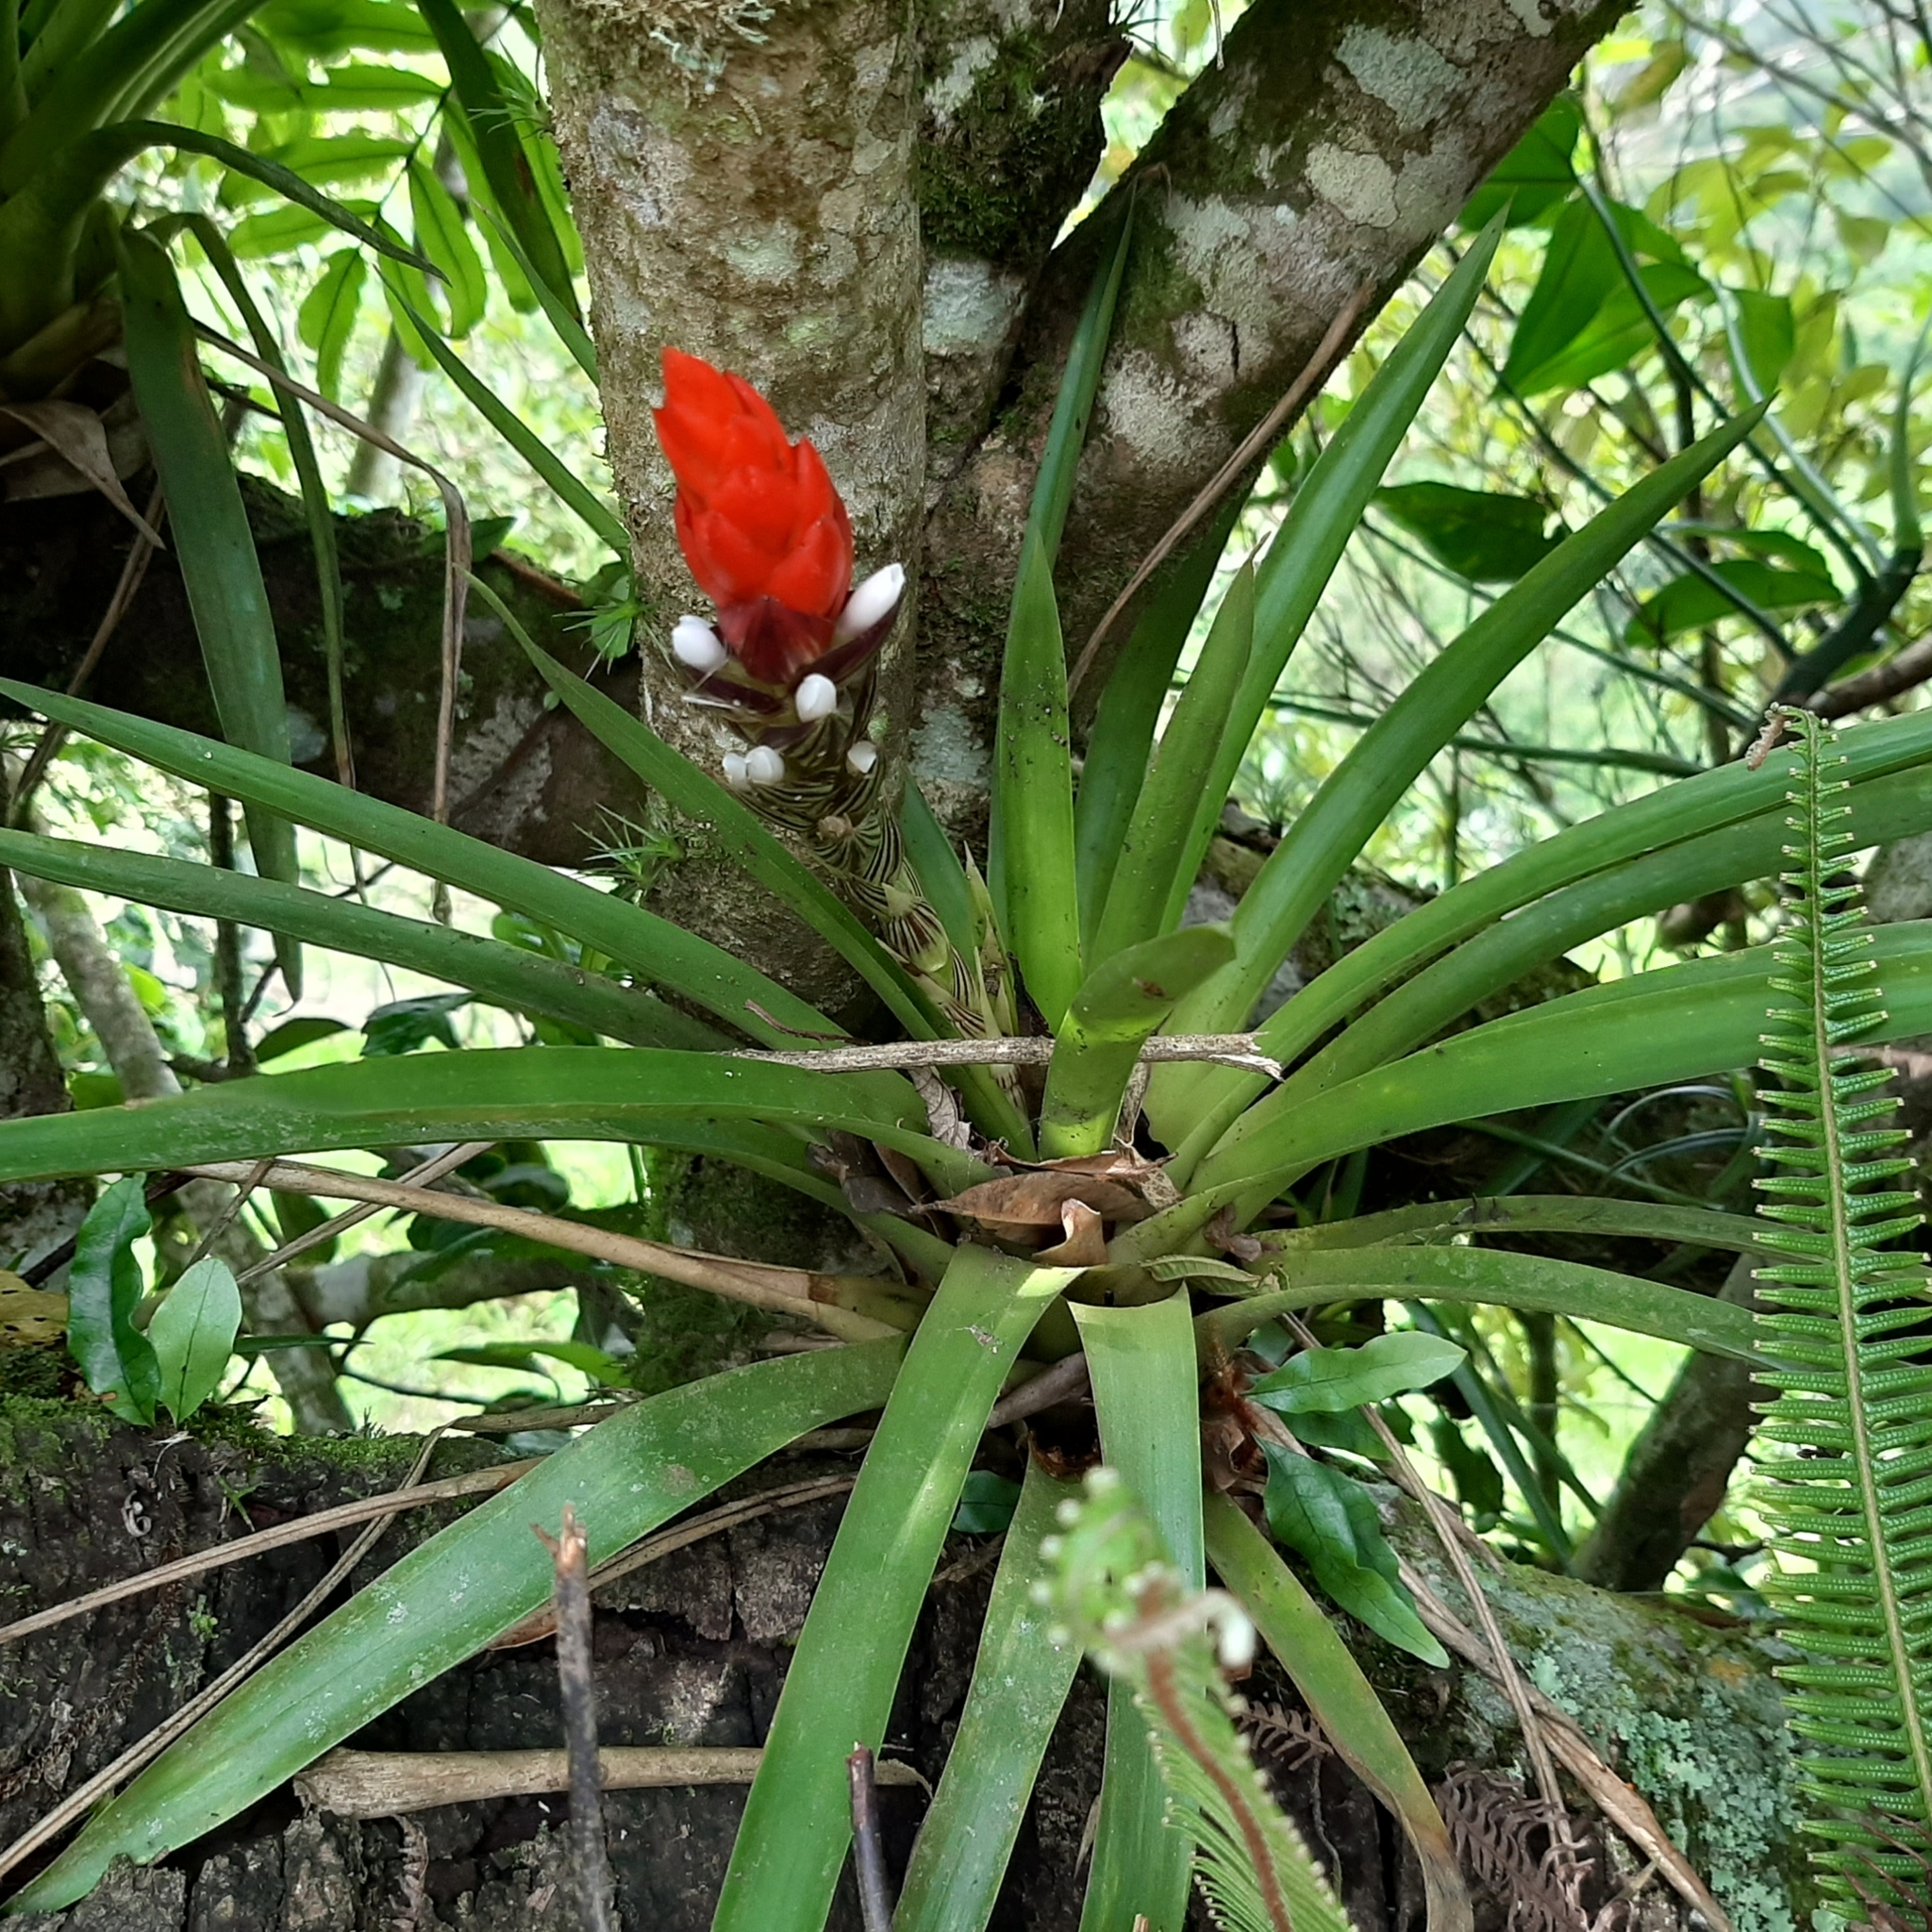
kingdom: Plantae
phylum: Tracheophyta
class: Liliopsida
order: Poales
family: Bromeliaceae
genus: Guzmania
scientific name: Guzmania monostachia
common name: West indian tufted airplant
